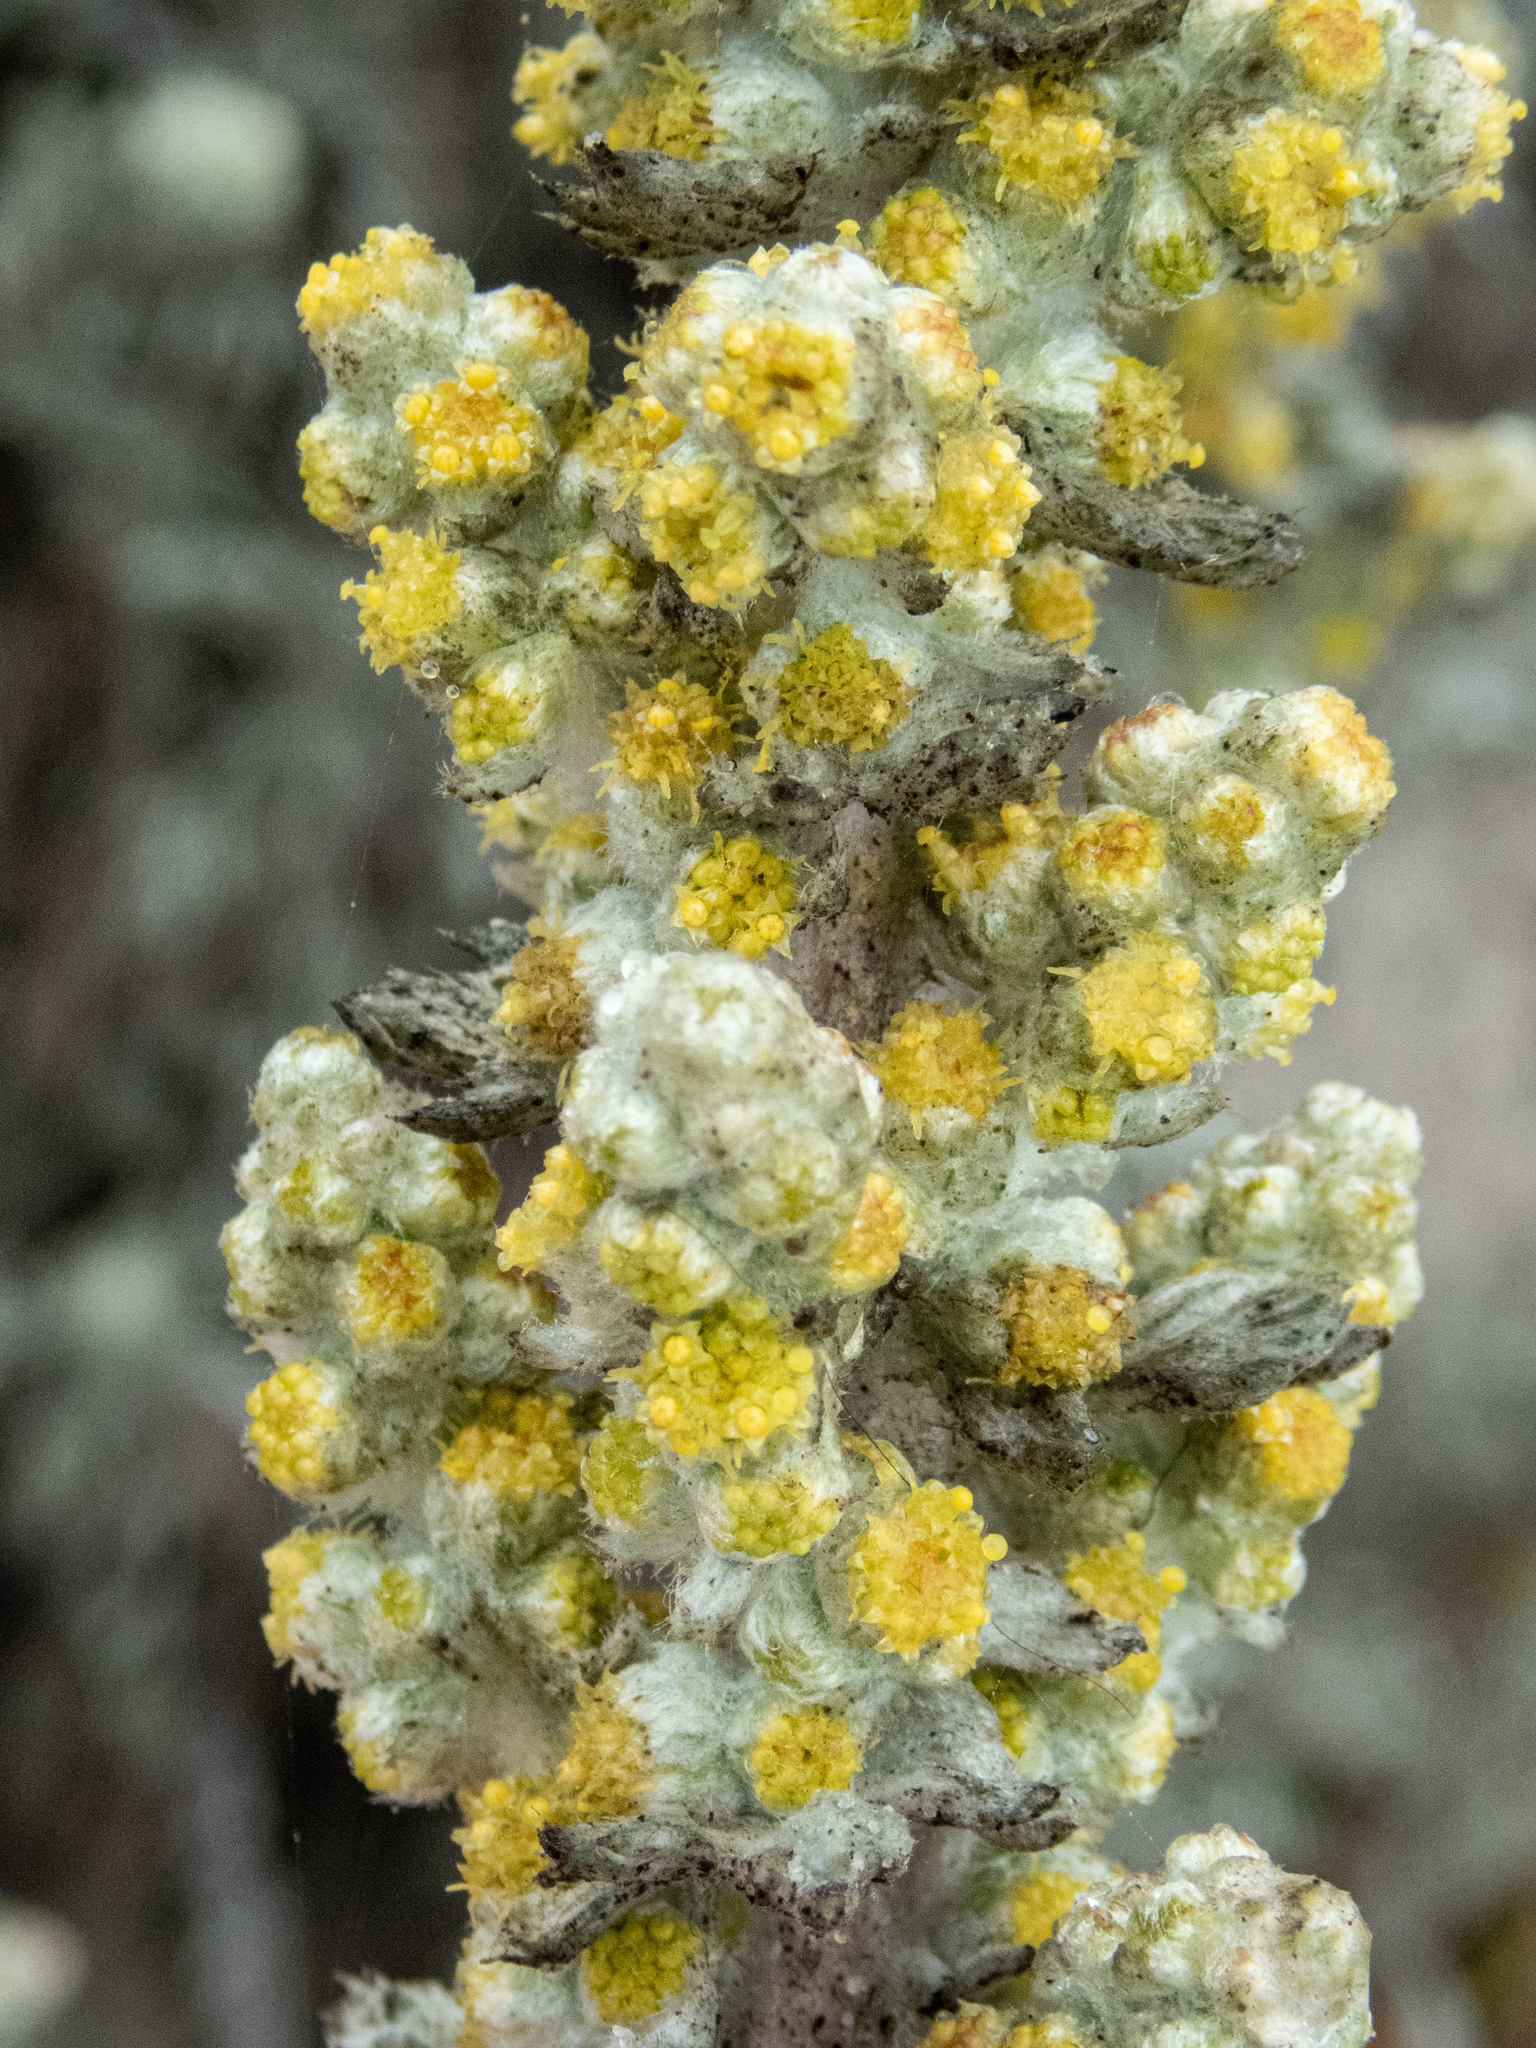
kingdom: Plantae
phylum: Tracheophyta
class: Magnoliopsida
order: Asterales
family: Asteraceae
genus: Artemisia
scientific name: Artemisia pycnocephala
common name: Coastal sagewort
